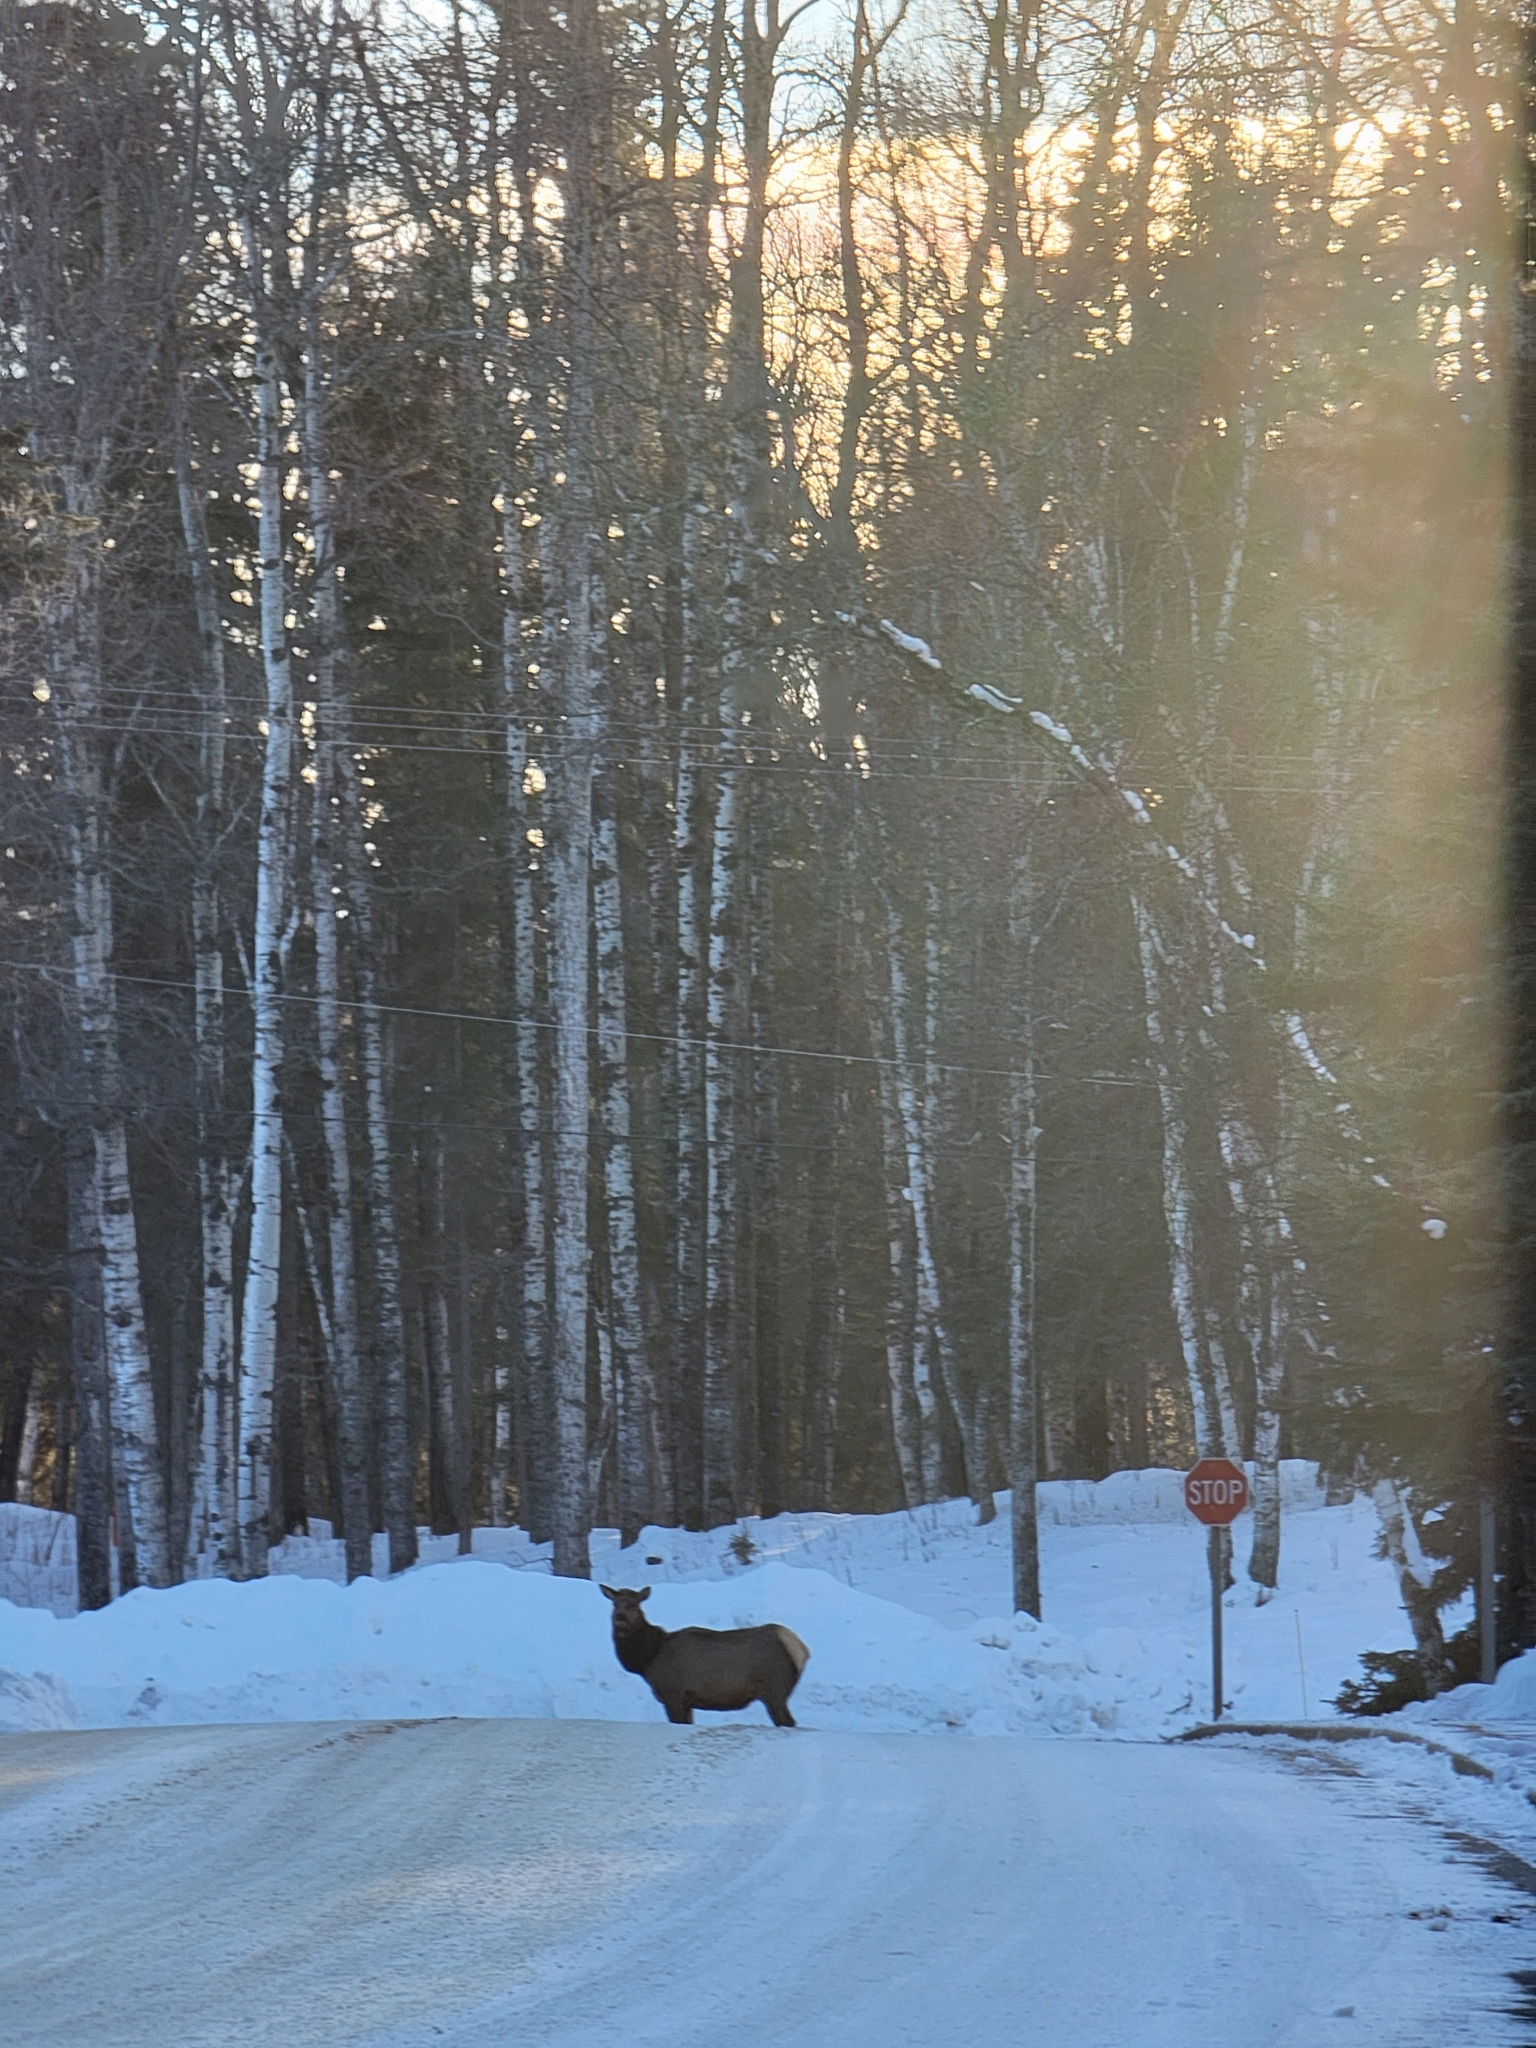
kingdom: Animalia
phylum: Chordata
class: Mammalia
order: Artiodactyla
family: Cervidae
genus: Cervus
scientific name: Cervus elaphus
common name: Red deer
